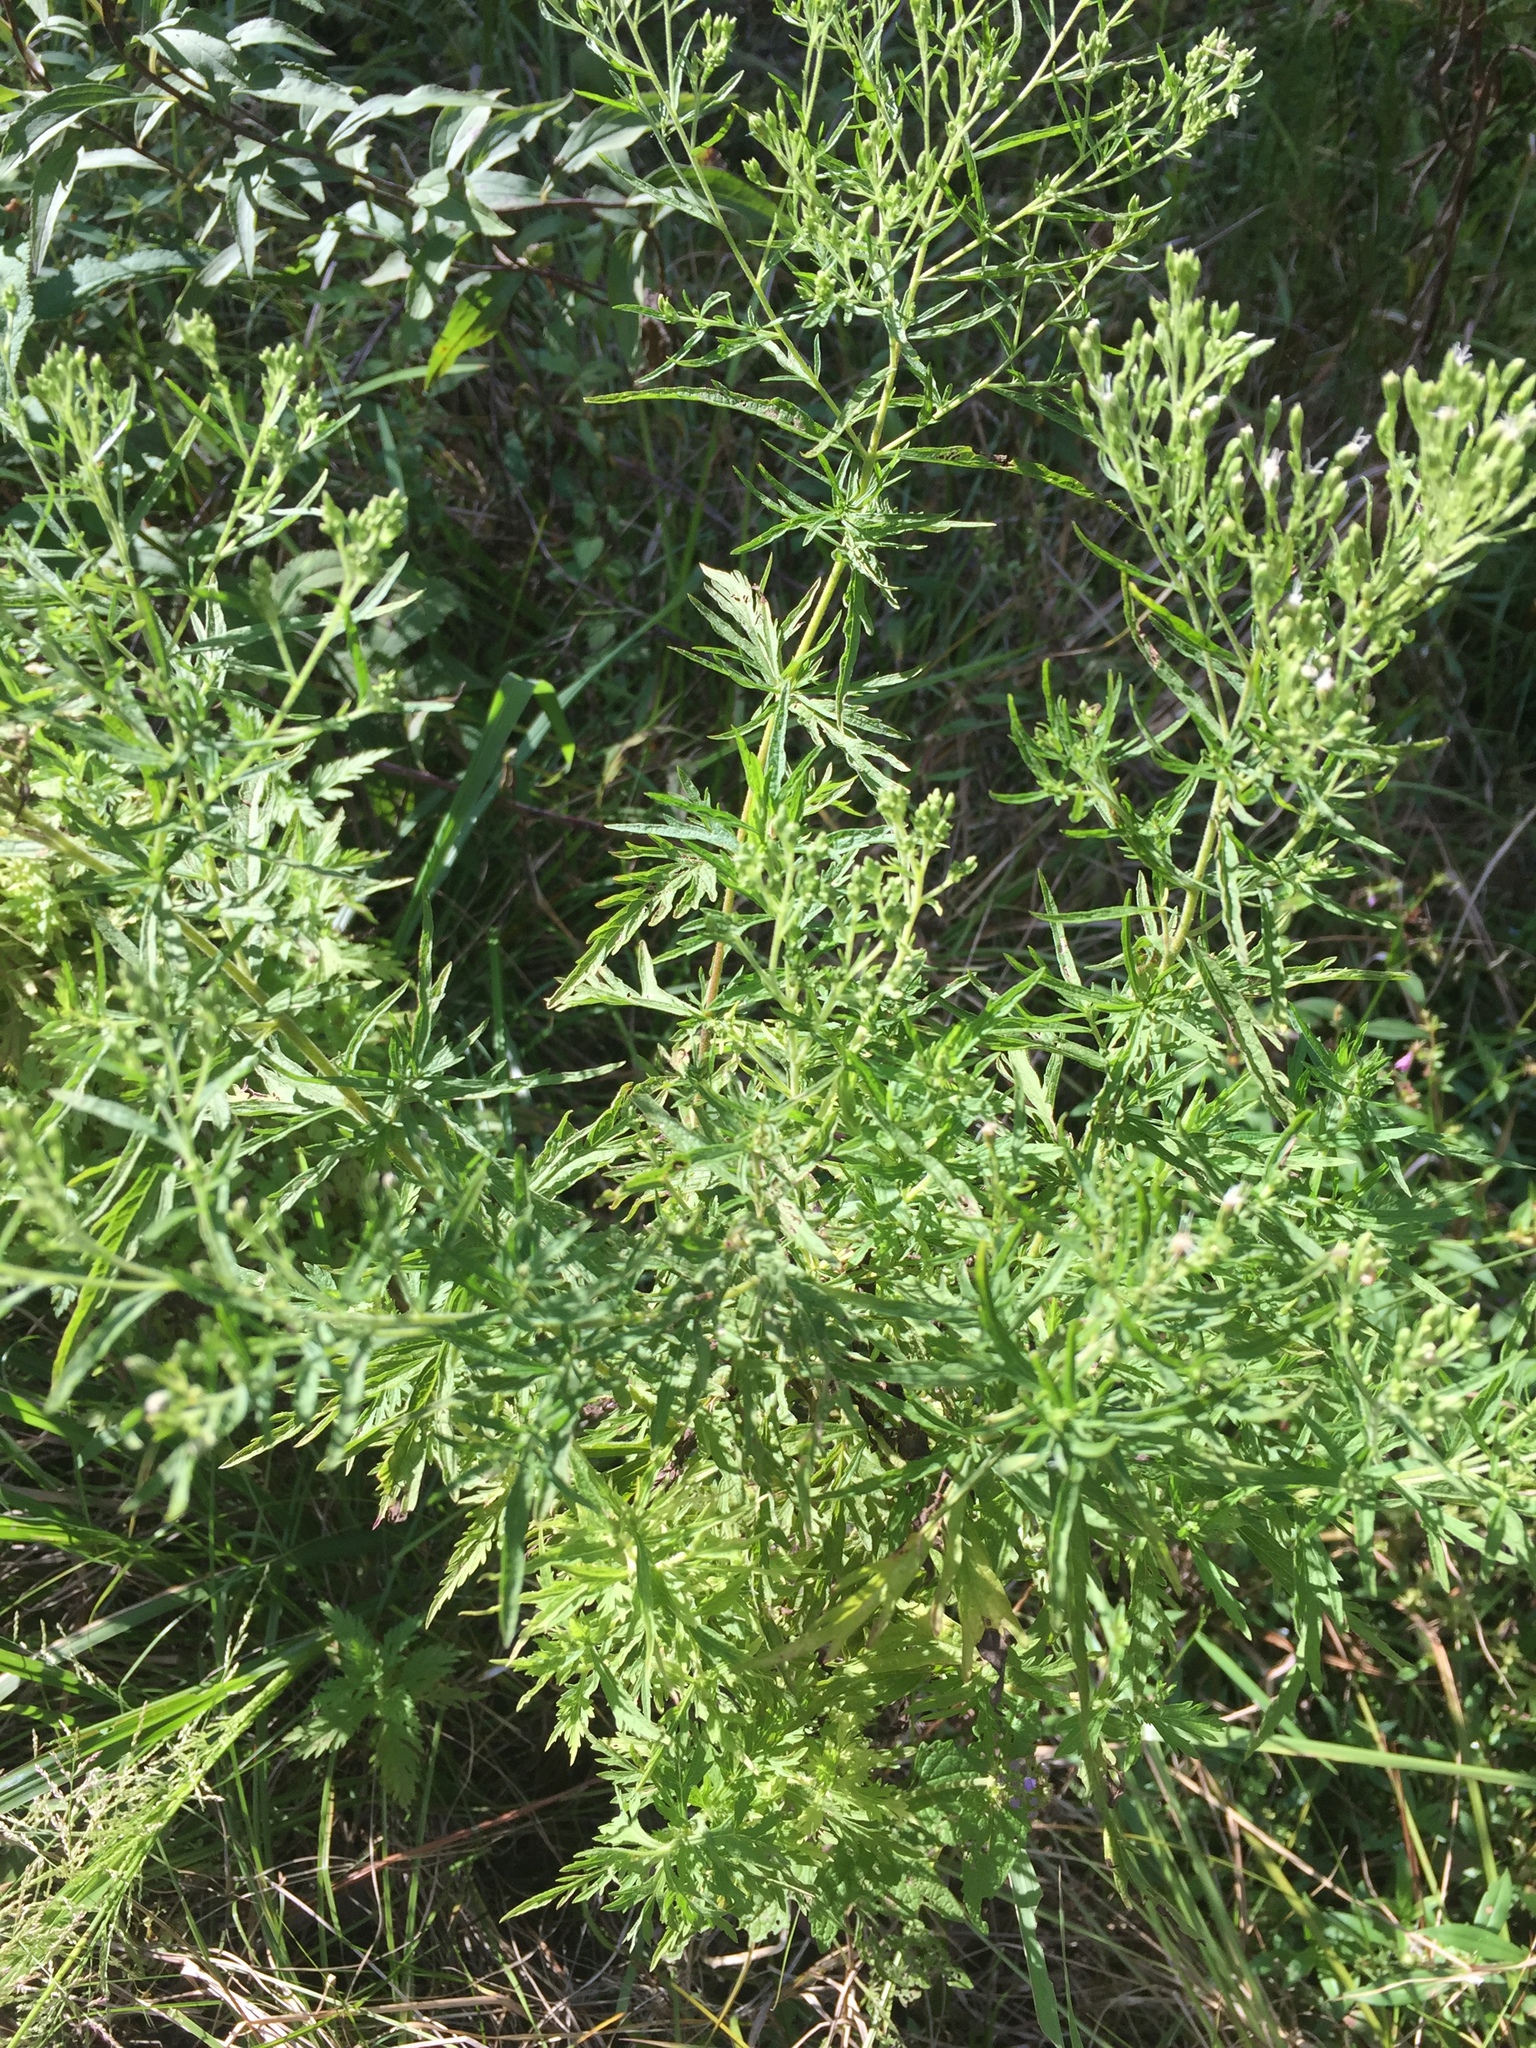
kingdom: Plantae
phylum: Tracheophyta
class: Magnoliopsida
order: Asterales
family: Asteraceae
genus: Eupatorium
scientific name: Eupatorium pinnatifidum
